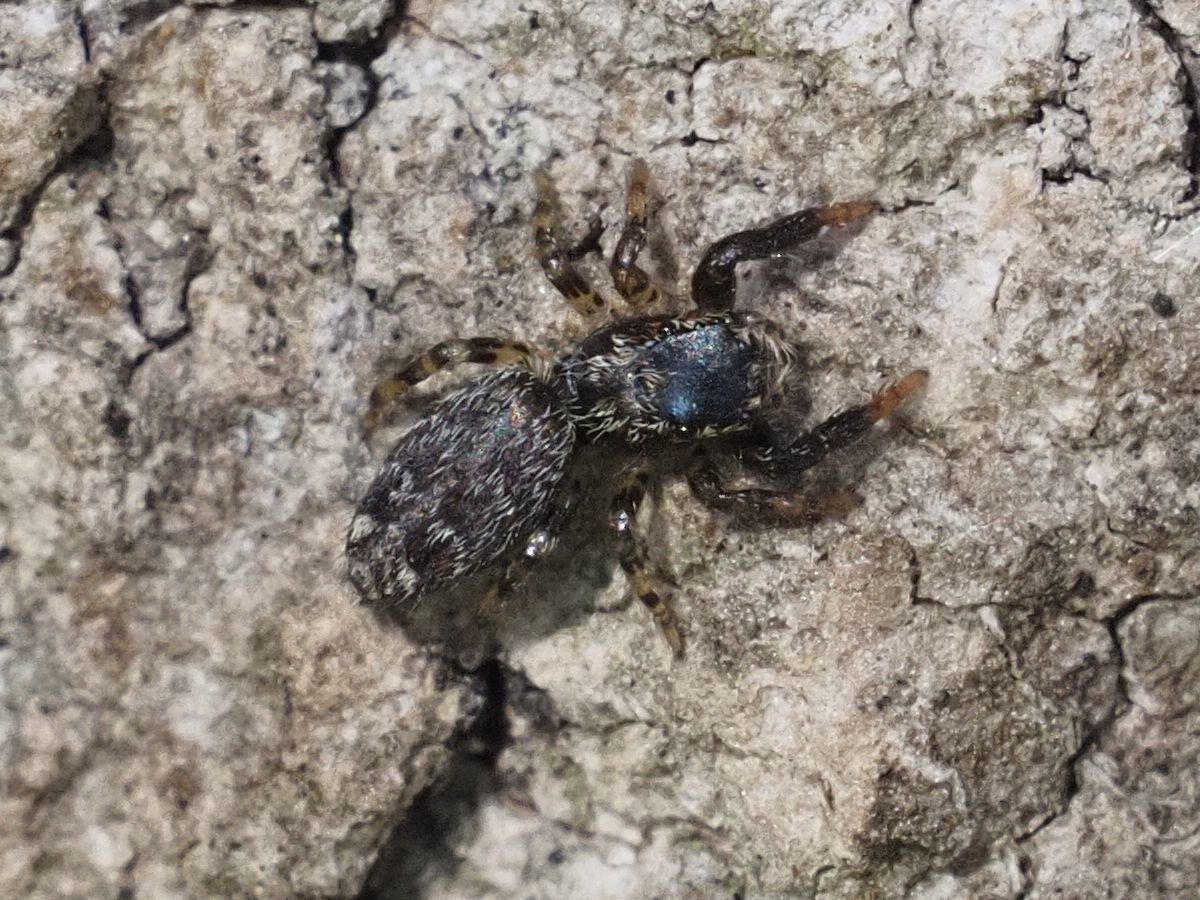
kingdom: Animalia
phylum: Arthropoda
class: Arachnida
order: Araneae
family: Salticidae
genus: Marpissa
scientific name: Marpissa muscosa
